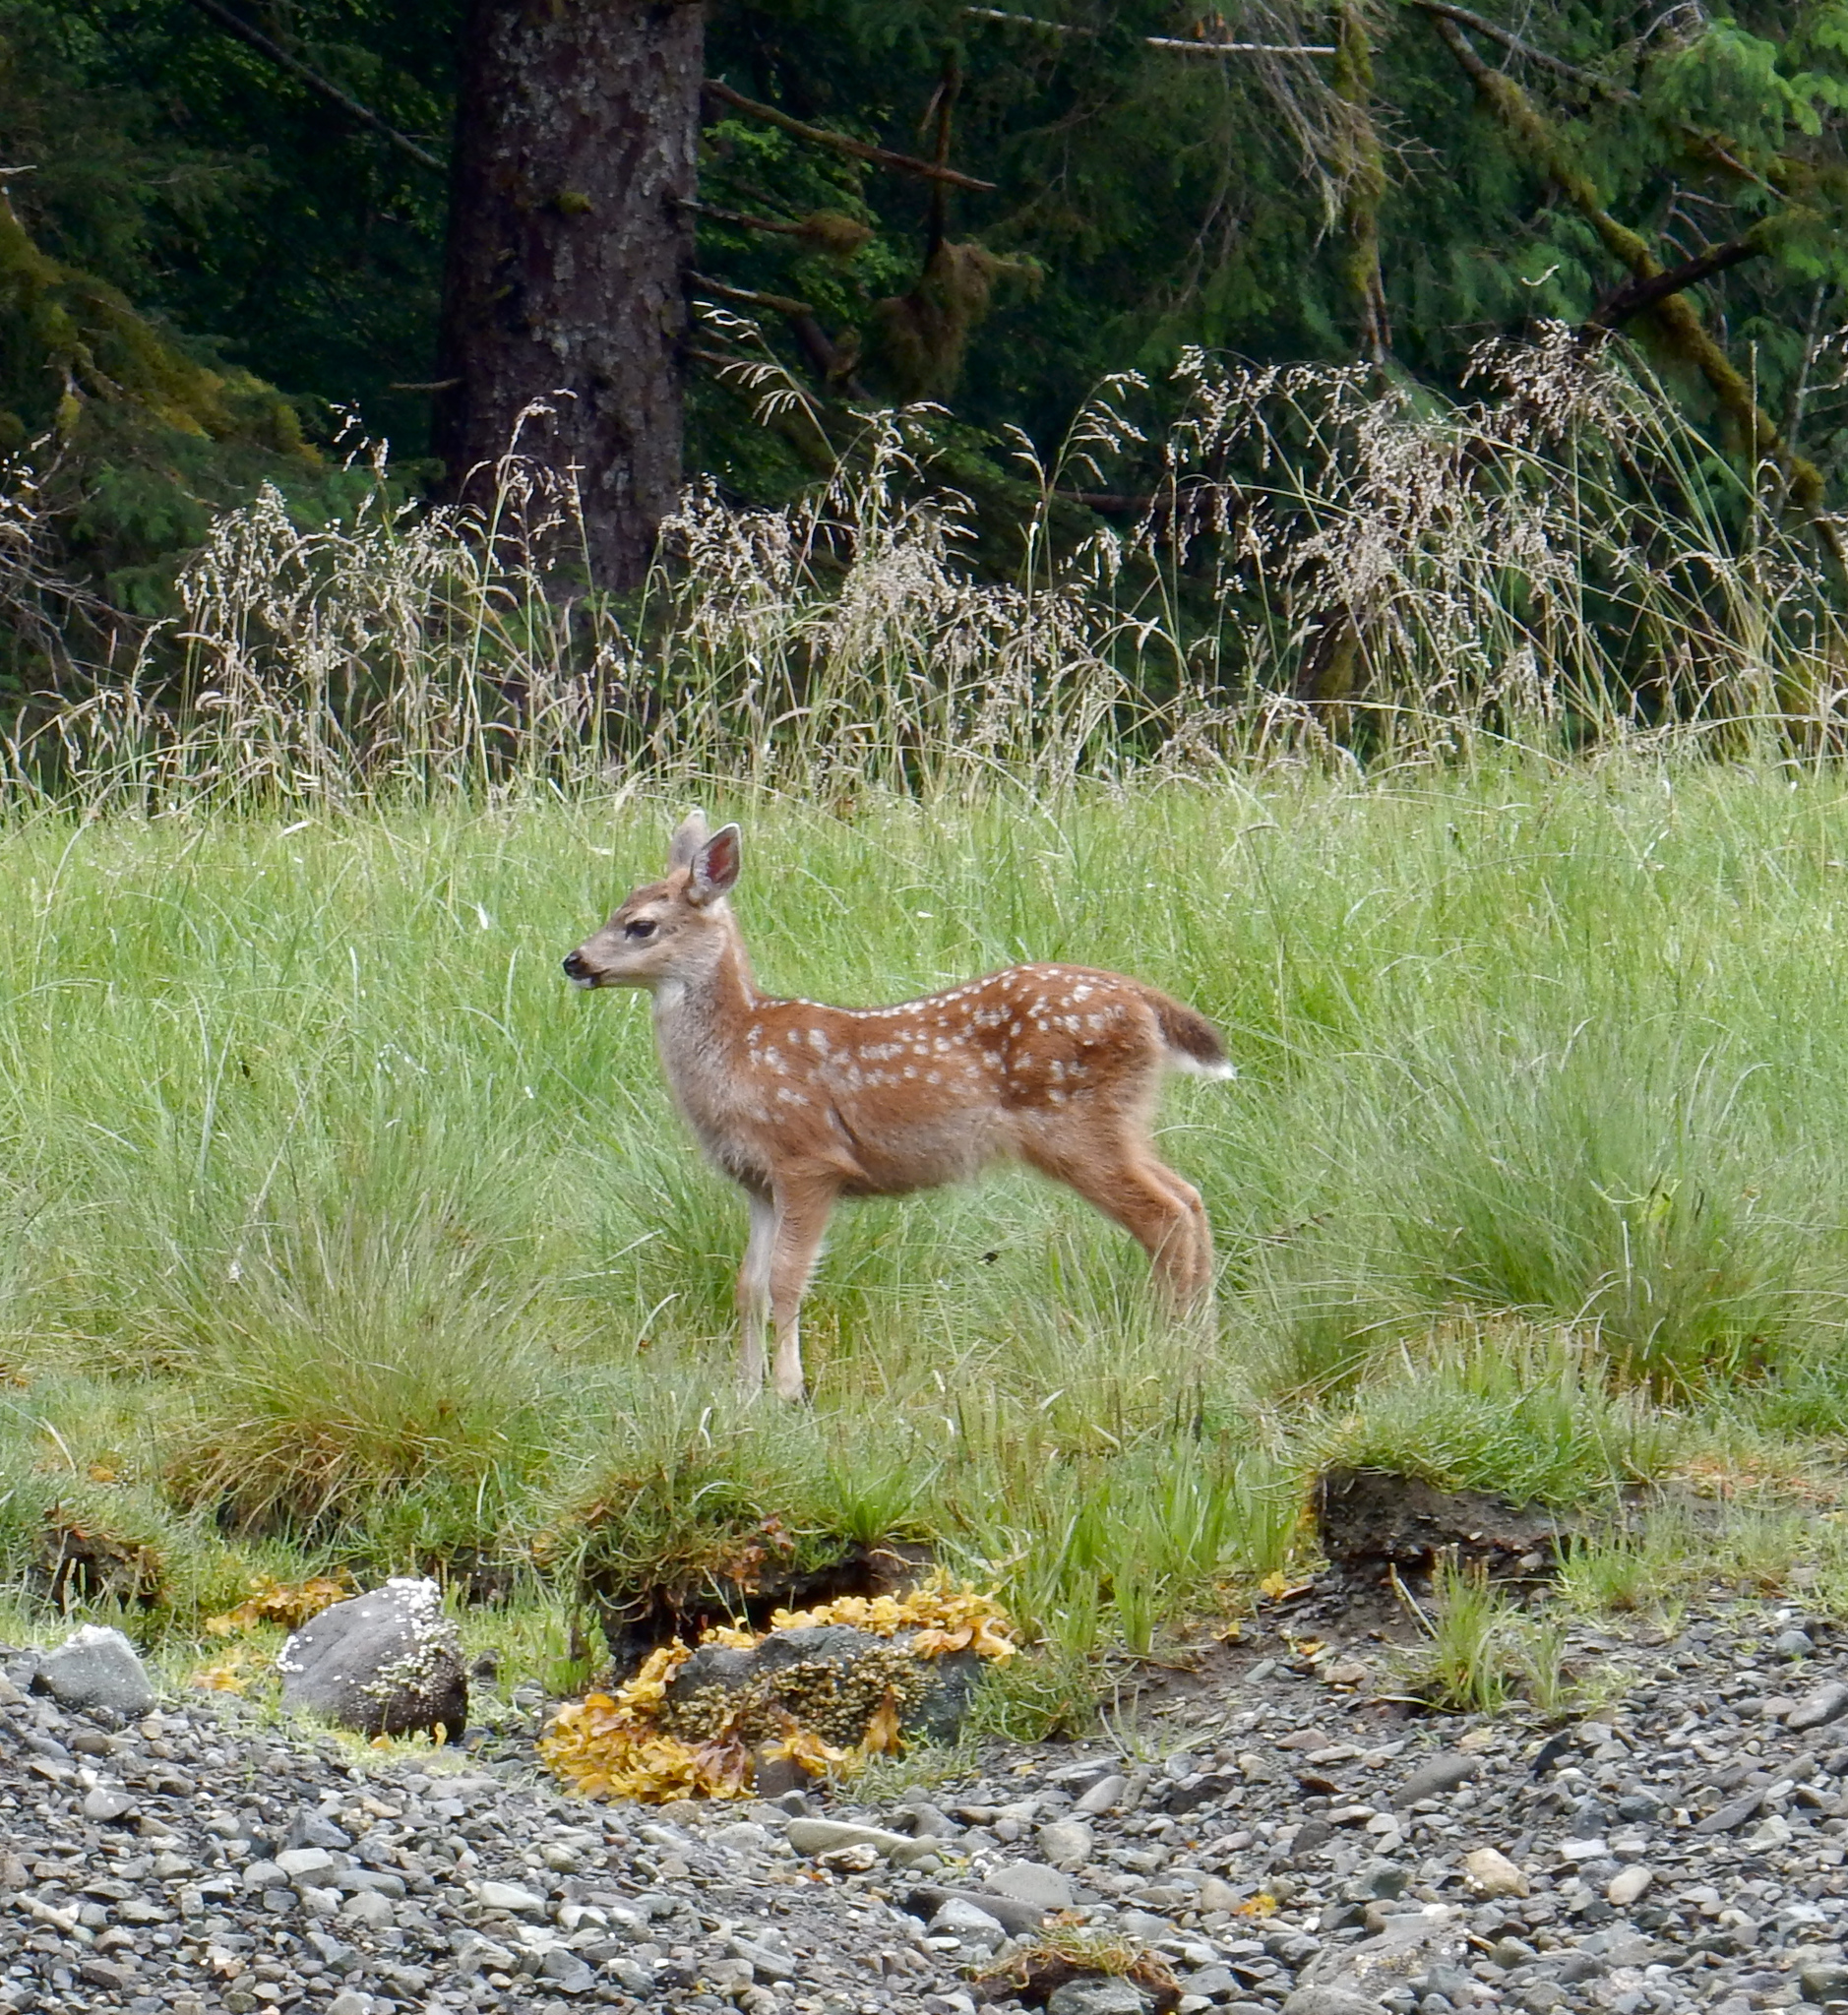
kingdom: Animalia
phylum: Chordata
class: Mammalia
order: Artiodactyla
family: Cervidae
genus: Odocoileus
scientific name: Odocoileus hemionus
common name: Mule deer
